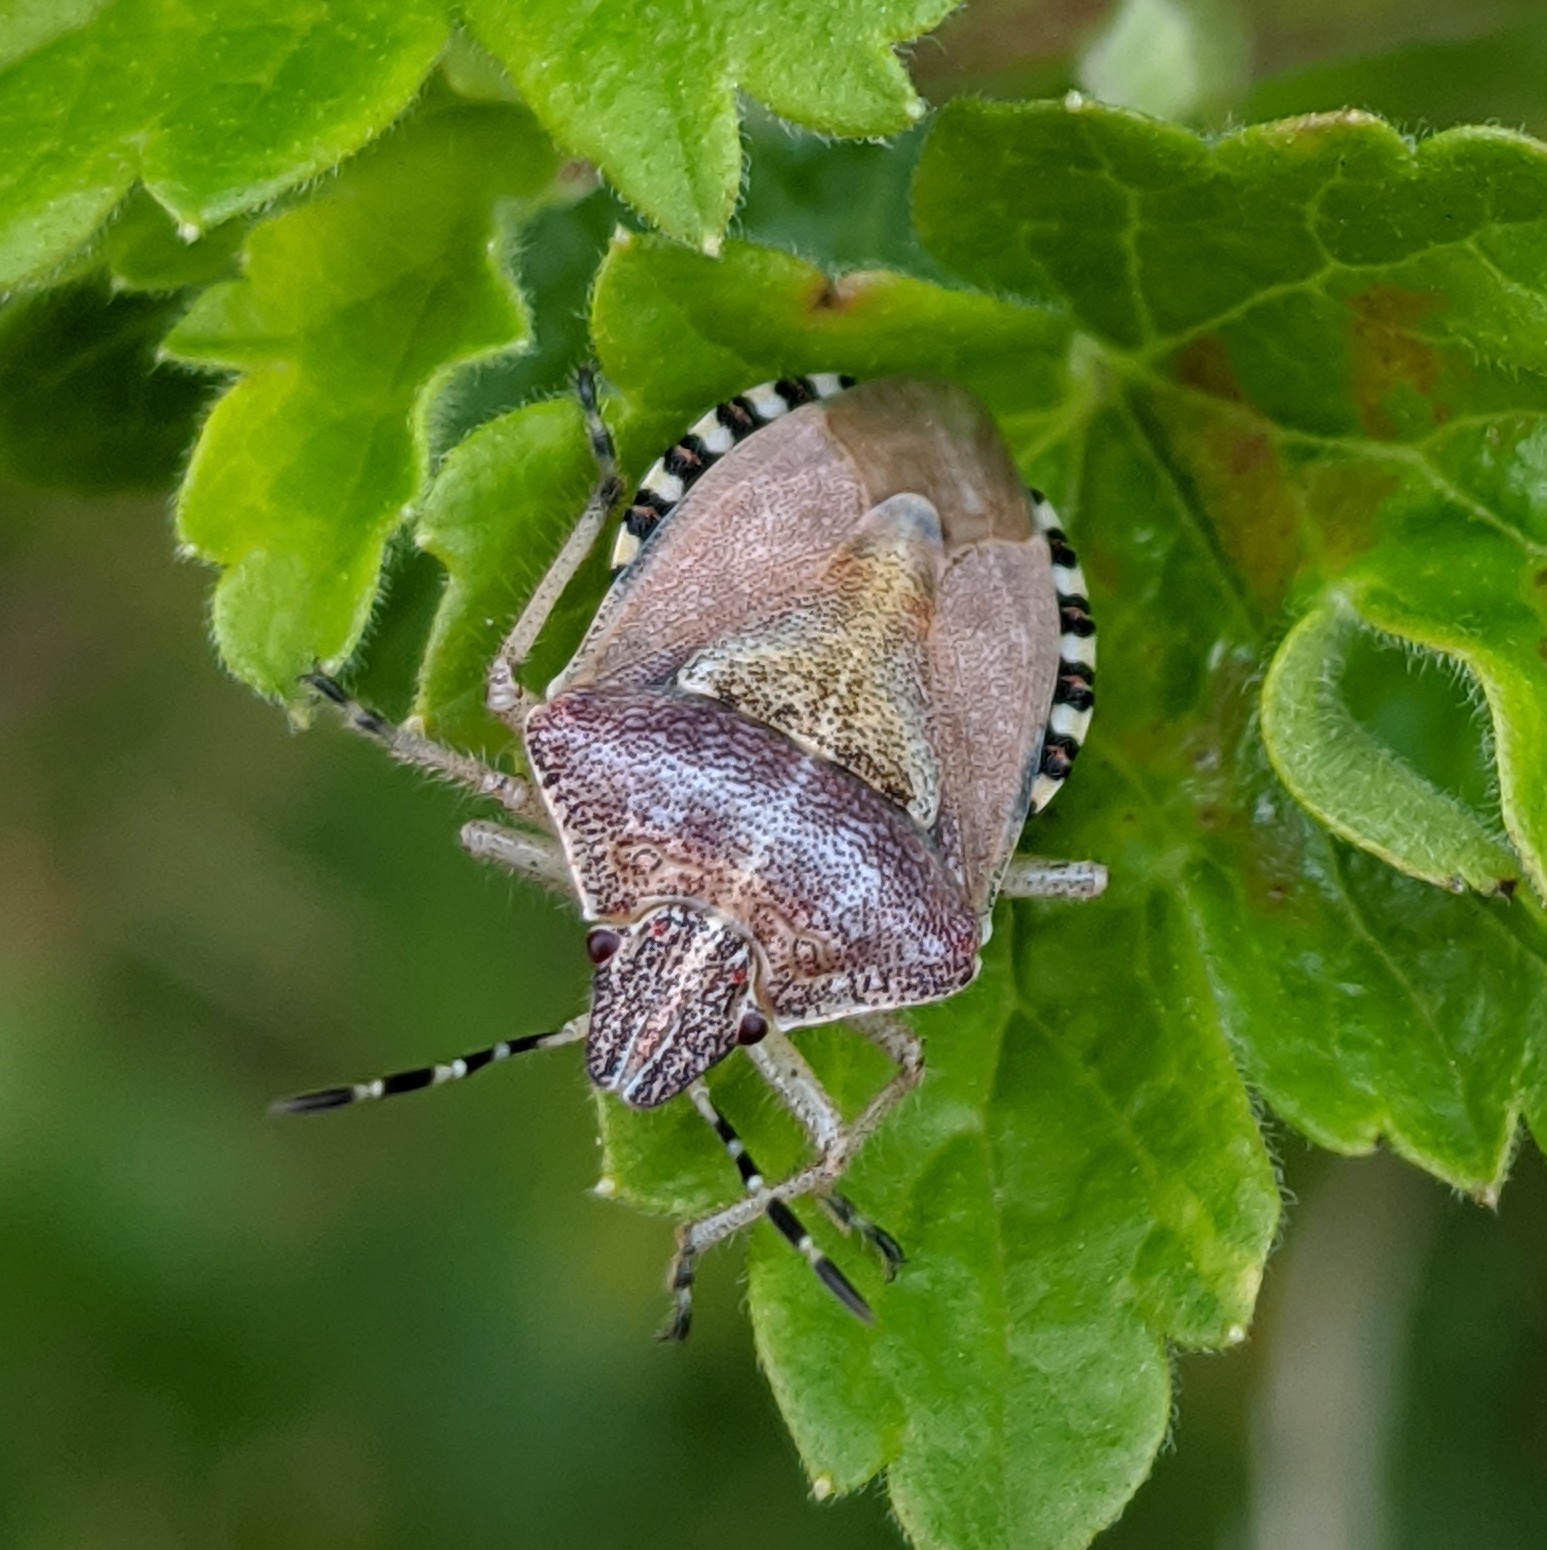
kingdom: Animalia
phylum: Arthropoda
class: Insecta
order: Hemiptera
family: Pentatomidae
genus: Dolycoris
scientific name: Dolycoris baccarum
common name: Sloe bug
